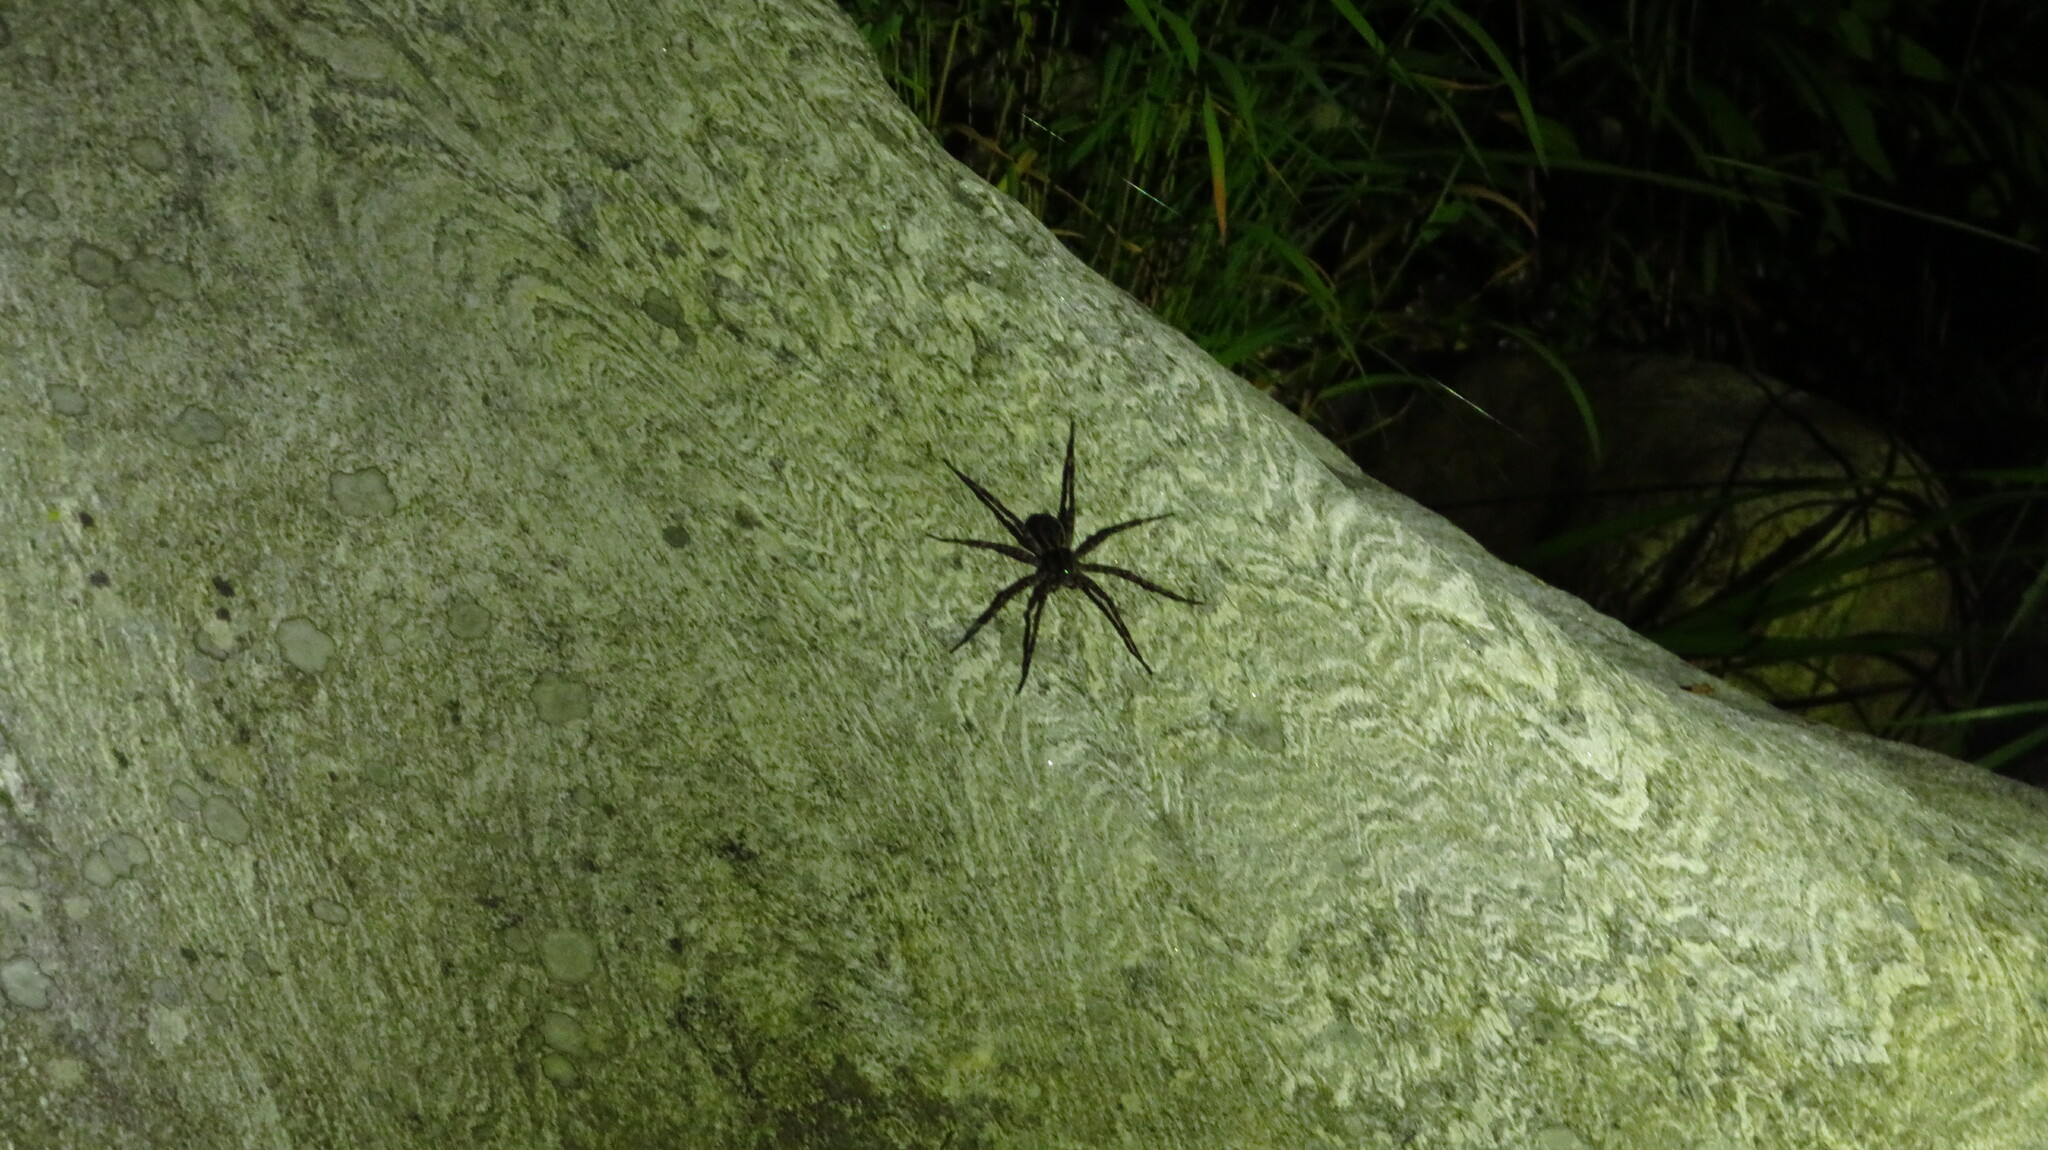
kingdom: Animalia
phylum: Arthropoda
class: Arachnida
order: Araneae
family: Pisauridae
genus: Dolomedes
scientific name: Dolomedes scriptus
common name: Striped fishing spider
